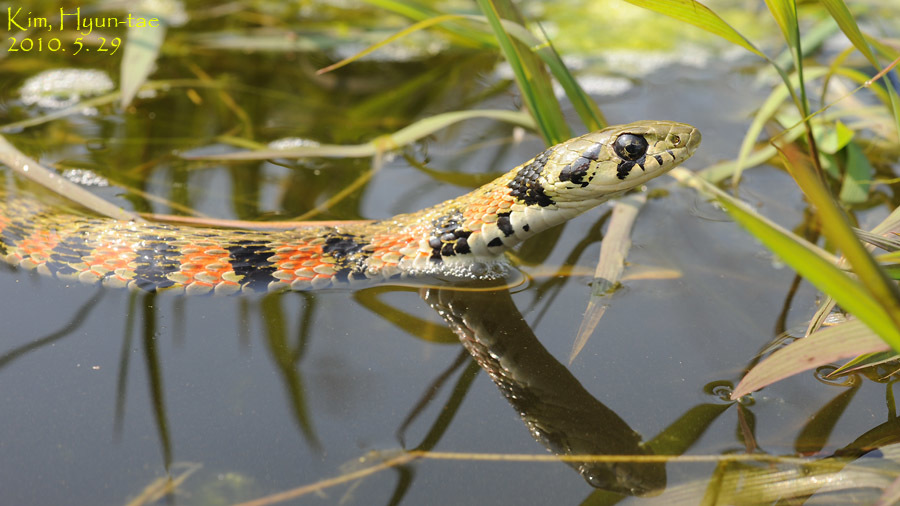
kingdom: Animalia
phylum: Chordata
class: Squamata
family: Colubridae
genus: Rhabdophis
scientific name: Rhabdophis tigrinus
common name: Tiger keelback
